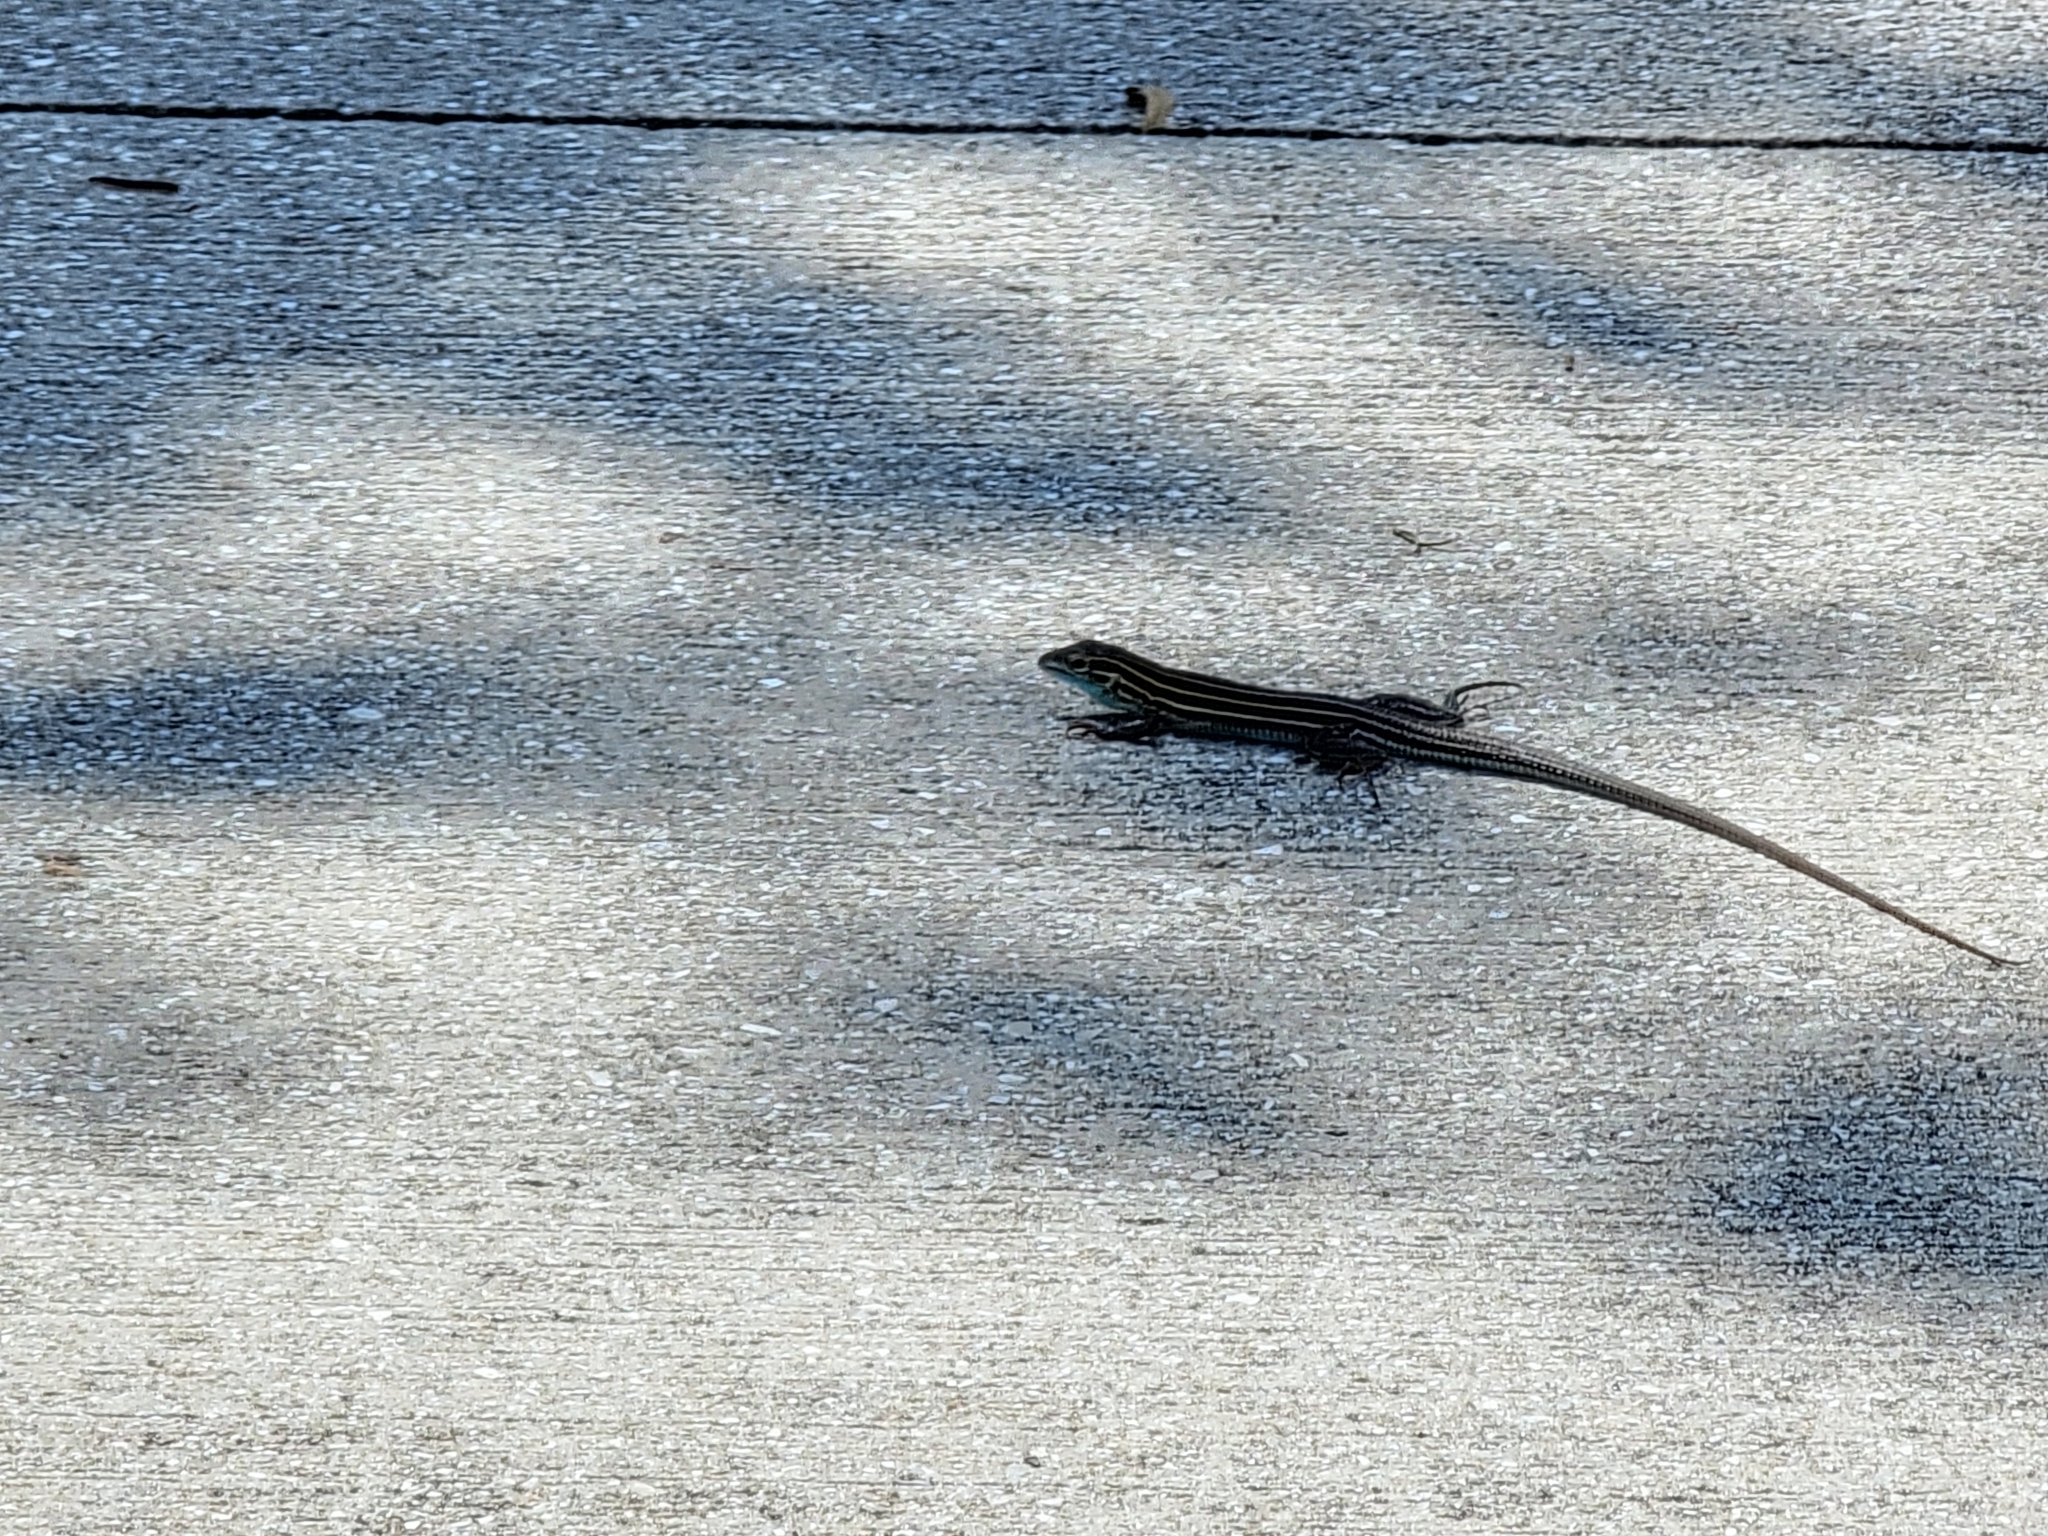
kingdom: Animalia
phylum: Chordata
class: Squamata
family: Teiidae
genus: Aspidoscelis
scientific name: Aspidoscelis sexlineatus
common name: Six-lined racerunner
